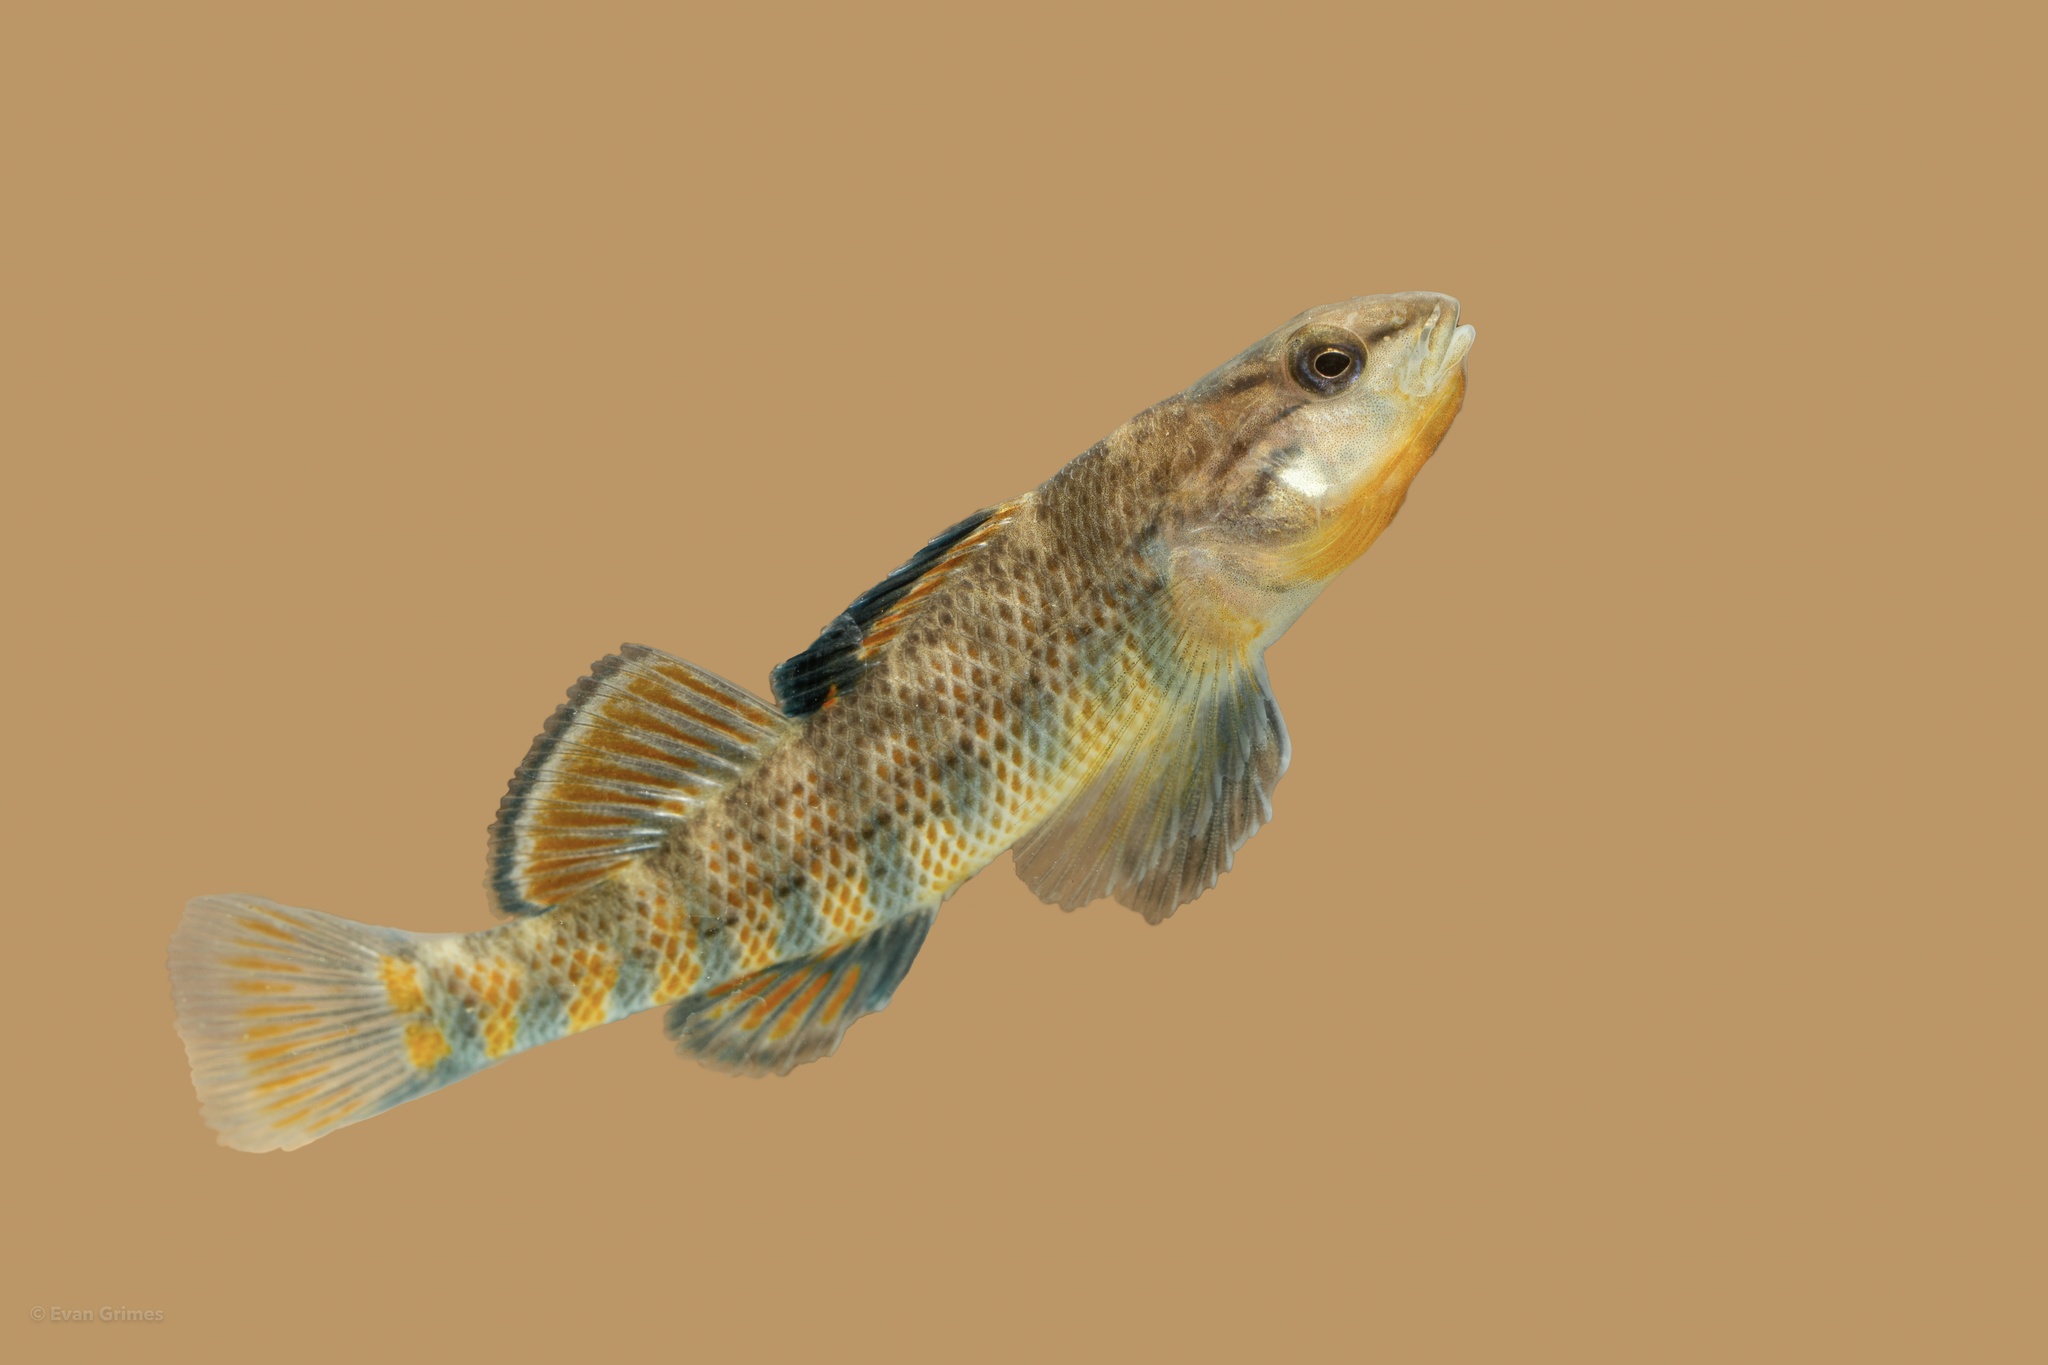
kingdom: Animalia
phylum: Chordata
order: Perciformes
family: Percidae
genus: Etheostoma
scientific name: Etheostoma caeruleum
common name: Rainbow darter
